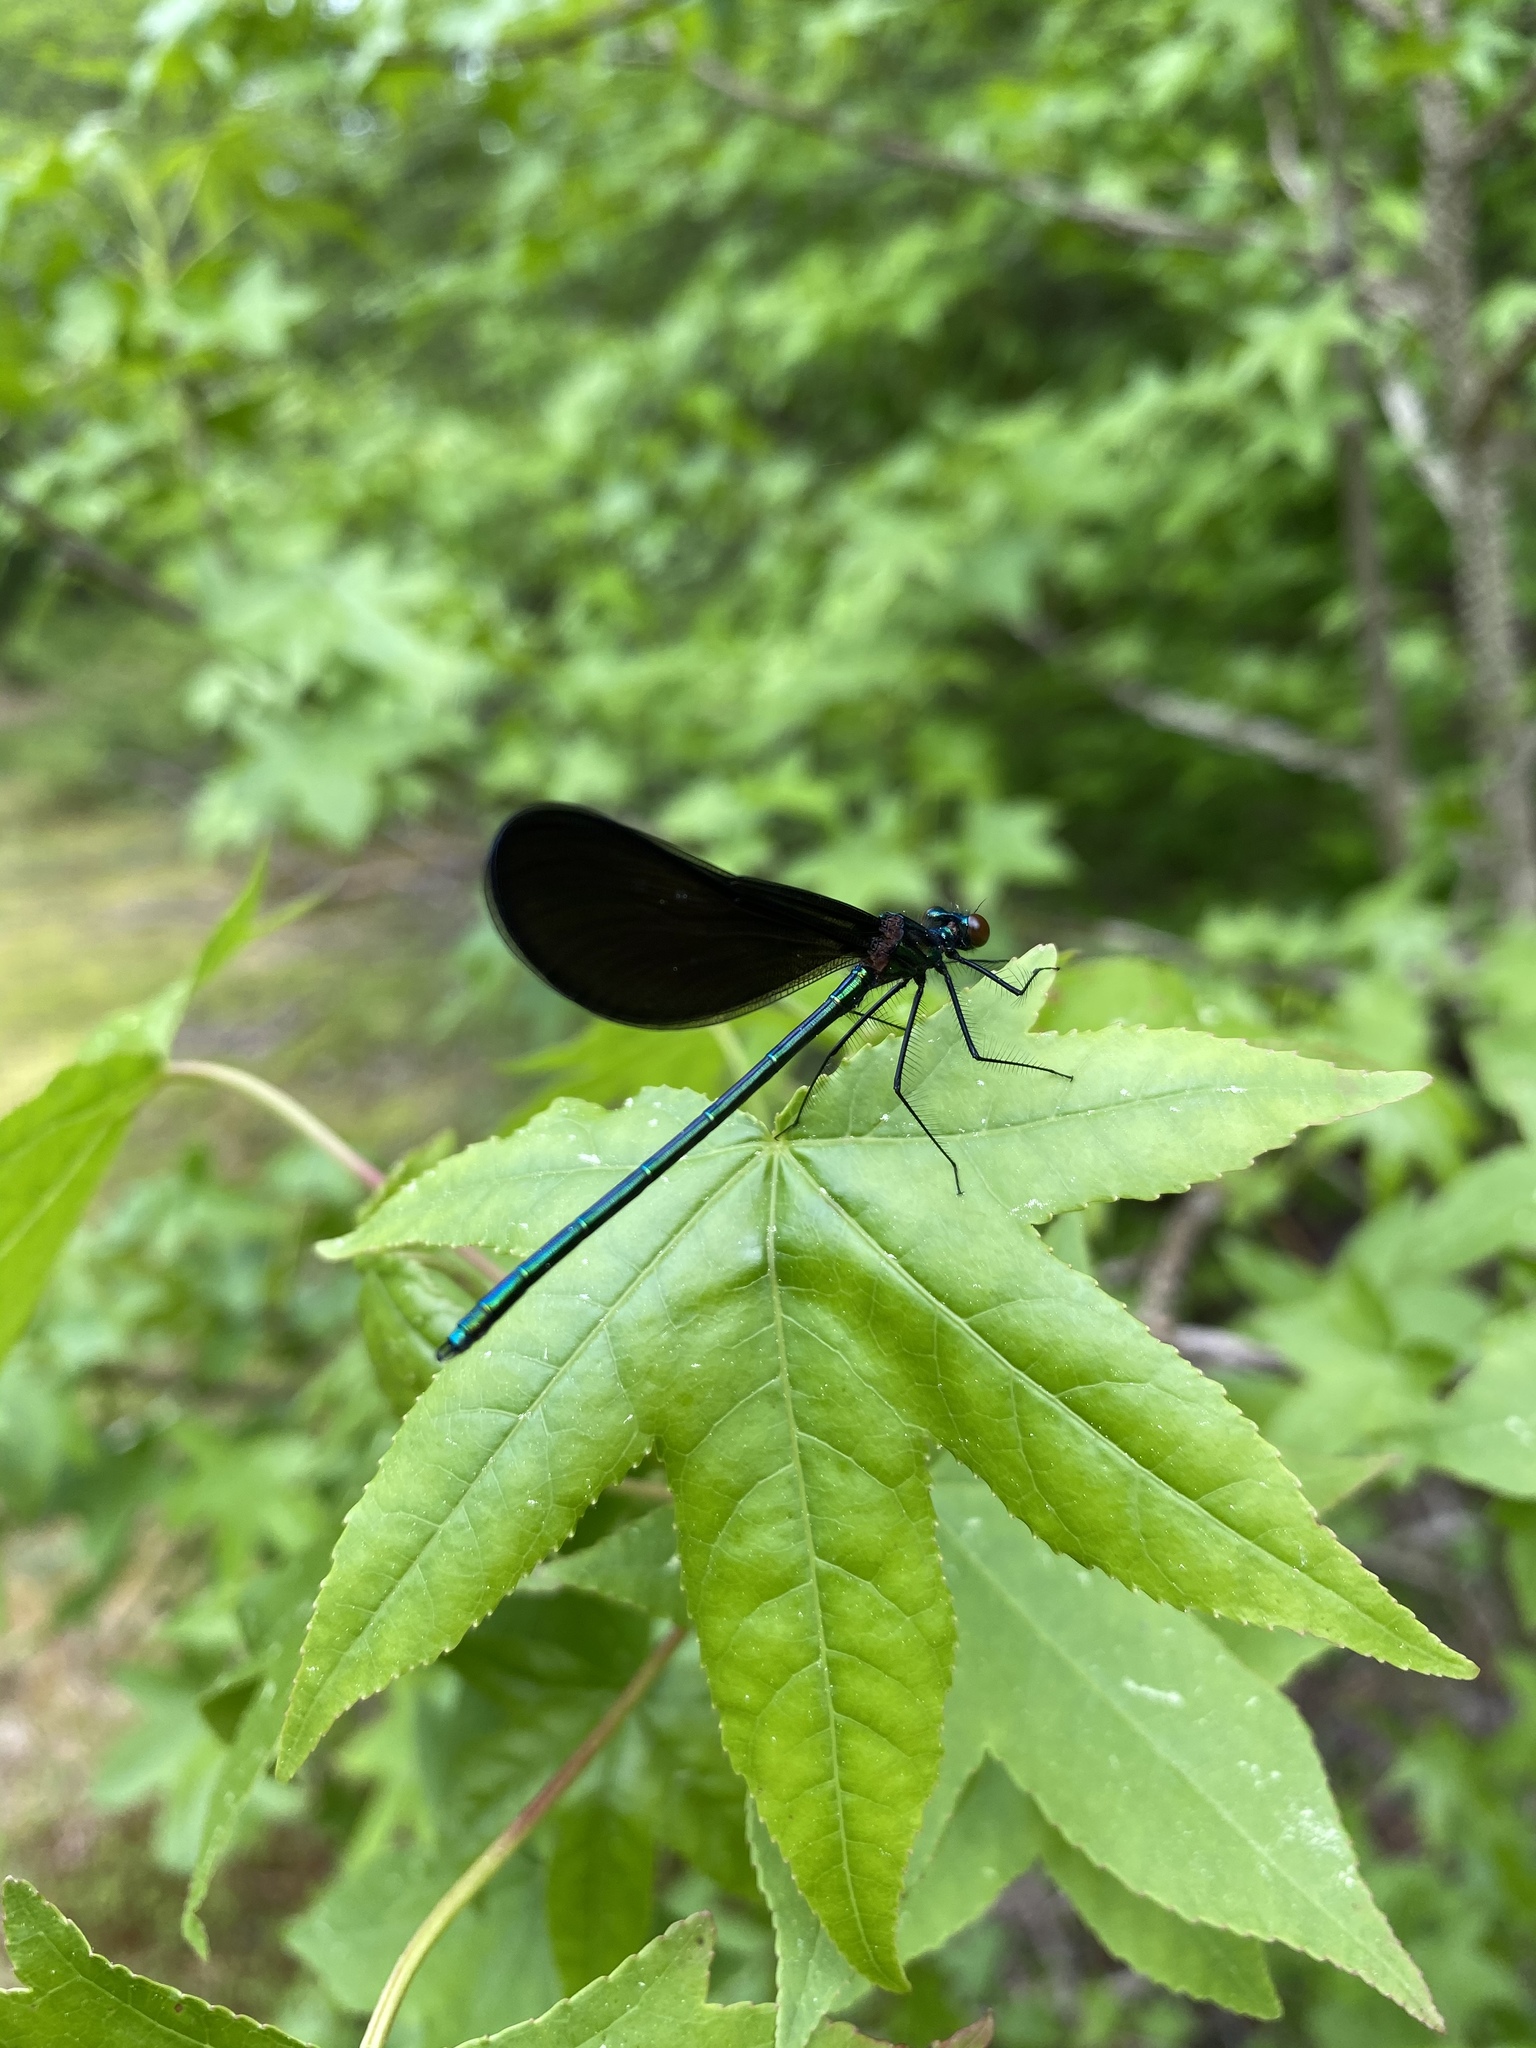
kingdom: Animalia
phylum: Arthropoda
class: Insecta
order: Odonata
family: Calopterygidae
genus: Calopteryx
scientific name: Calopteryx maculata
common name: Ebony jewelwing
